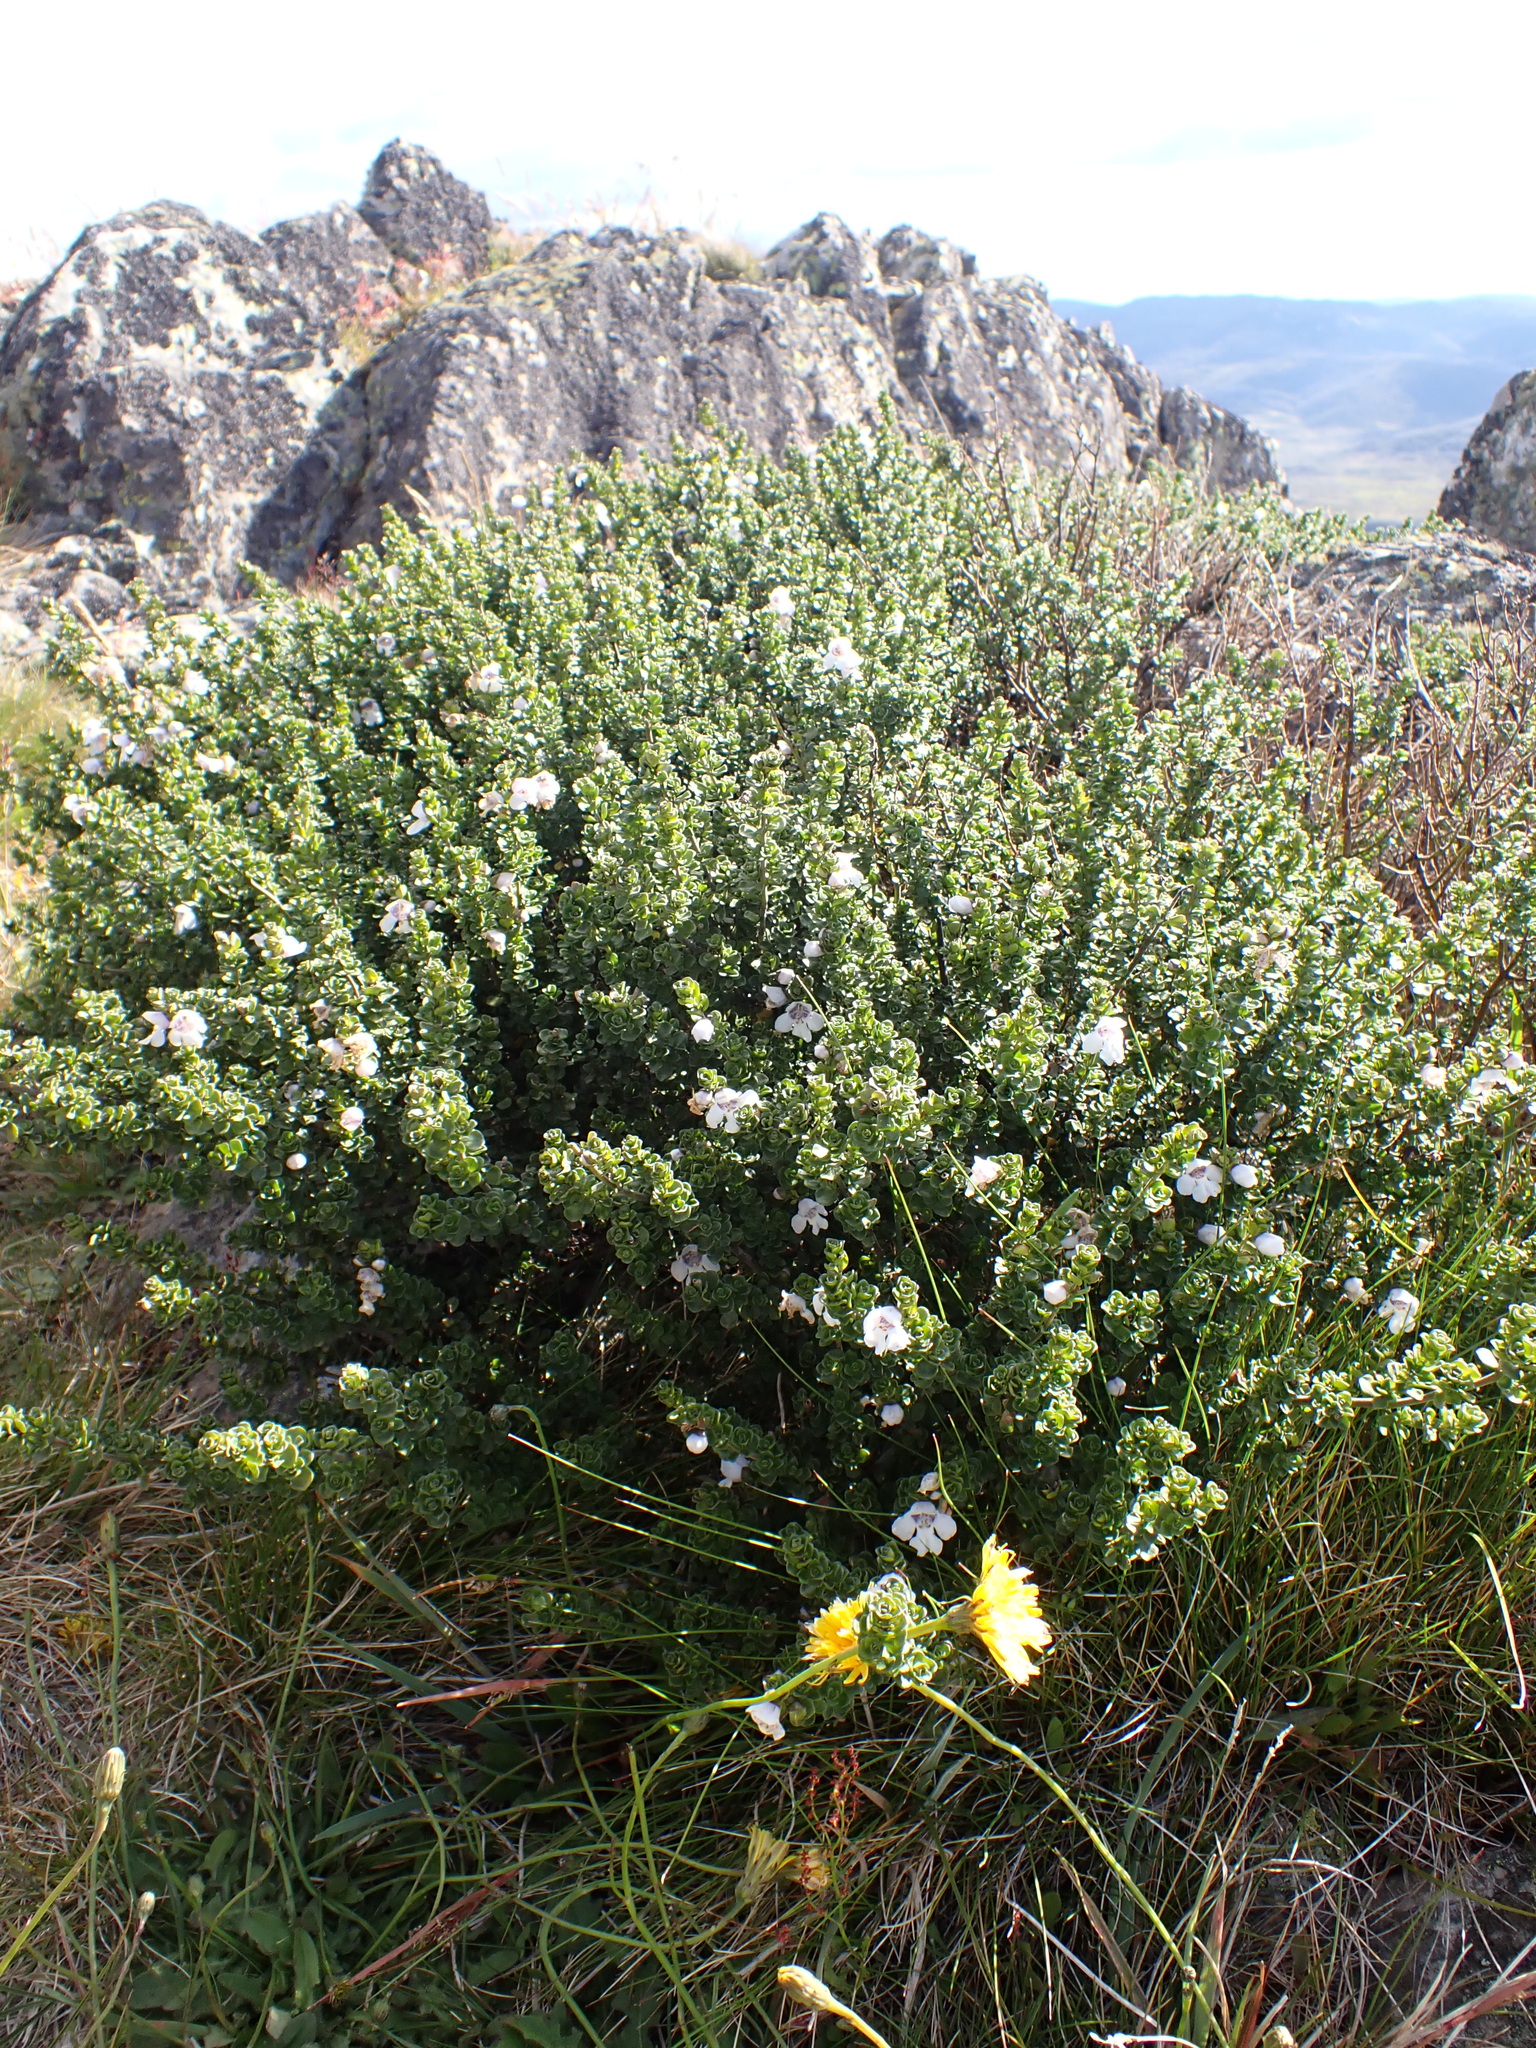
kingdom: Plantae
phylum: Tracheophyta
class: Magnoliopsida
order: Lamiales
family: Lamiaceae
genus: Prostanthera
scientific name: Prostanthera cuneata
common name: Alpine mintbush
